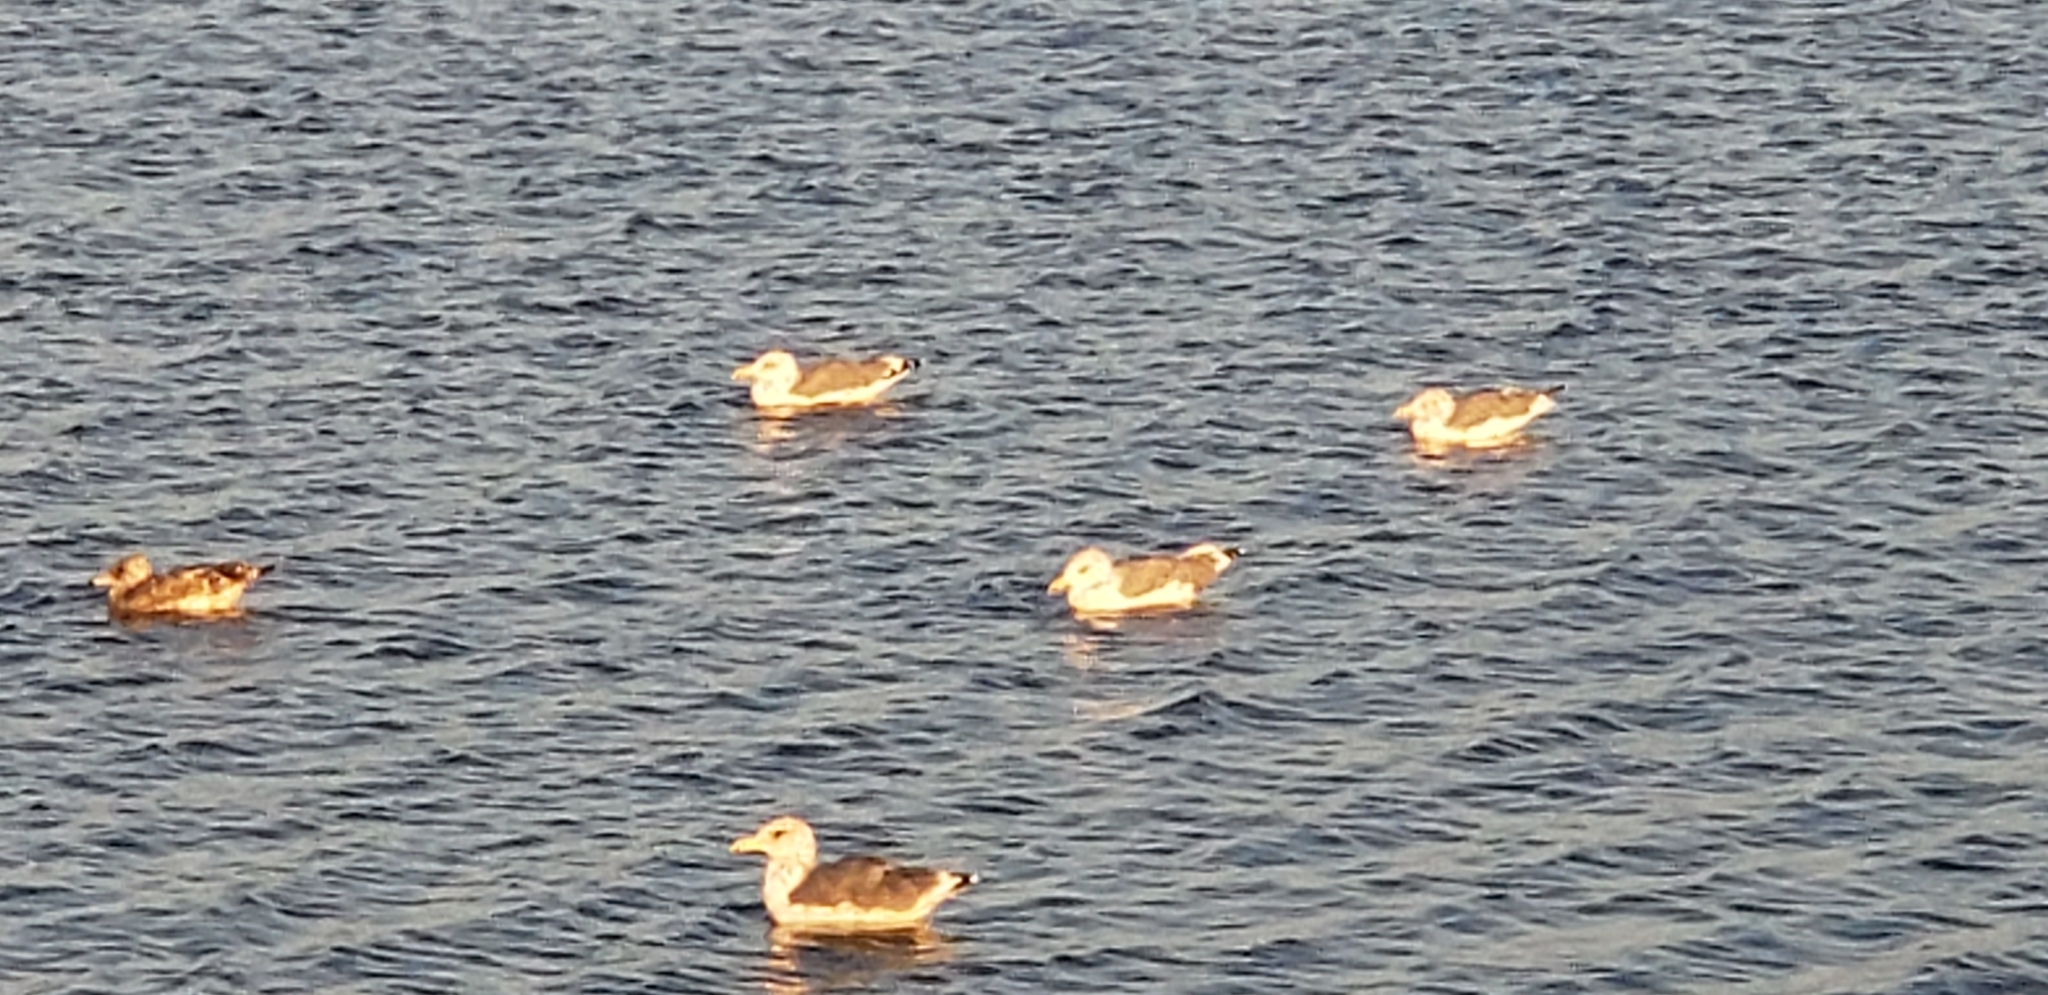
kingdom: Animalia
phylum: Chordata
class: Aves
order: Charadriiformes
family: Laridae
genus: Larus
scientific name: Larus californicus
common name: California gull
